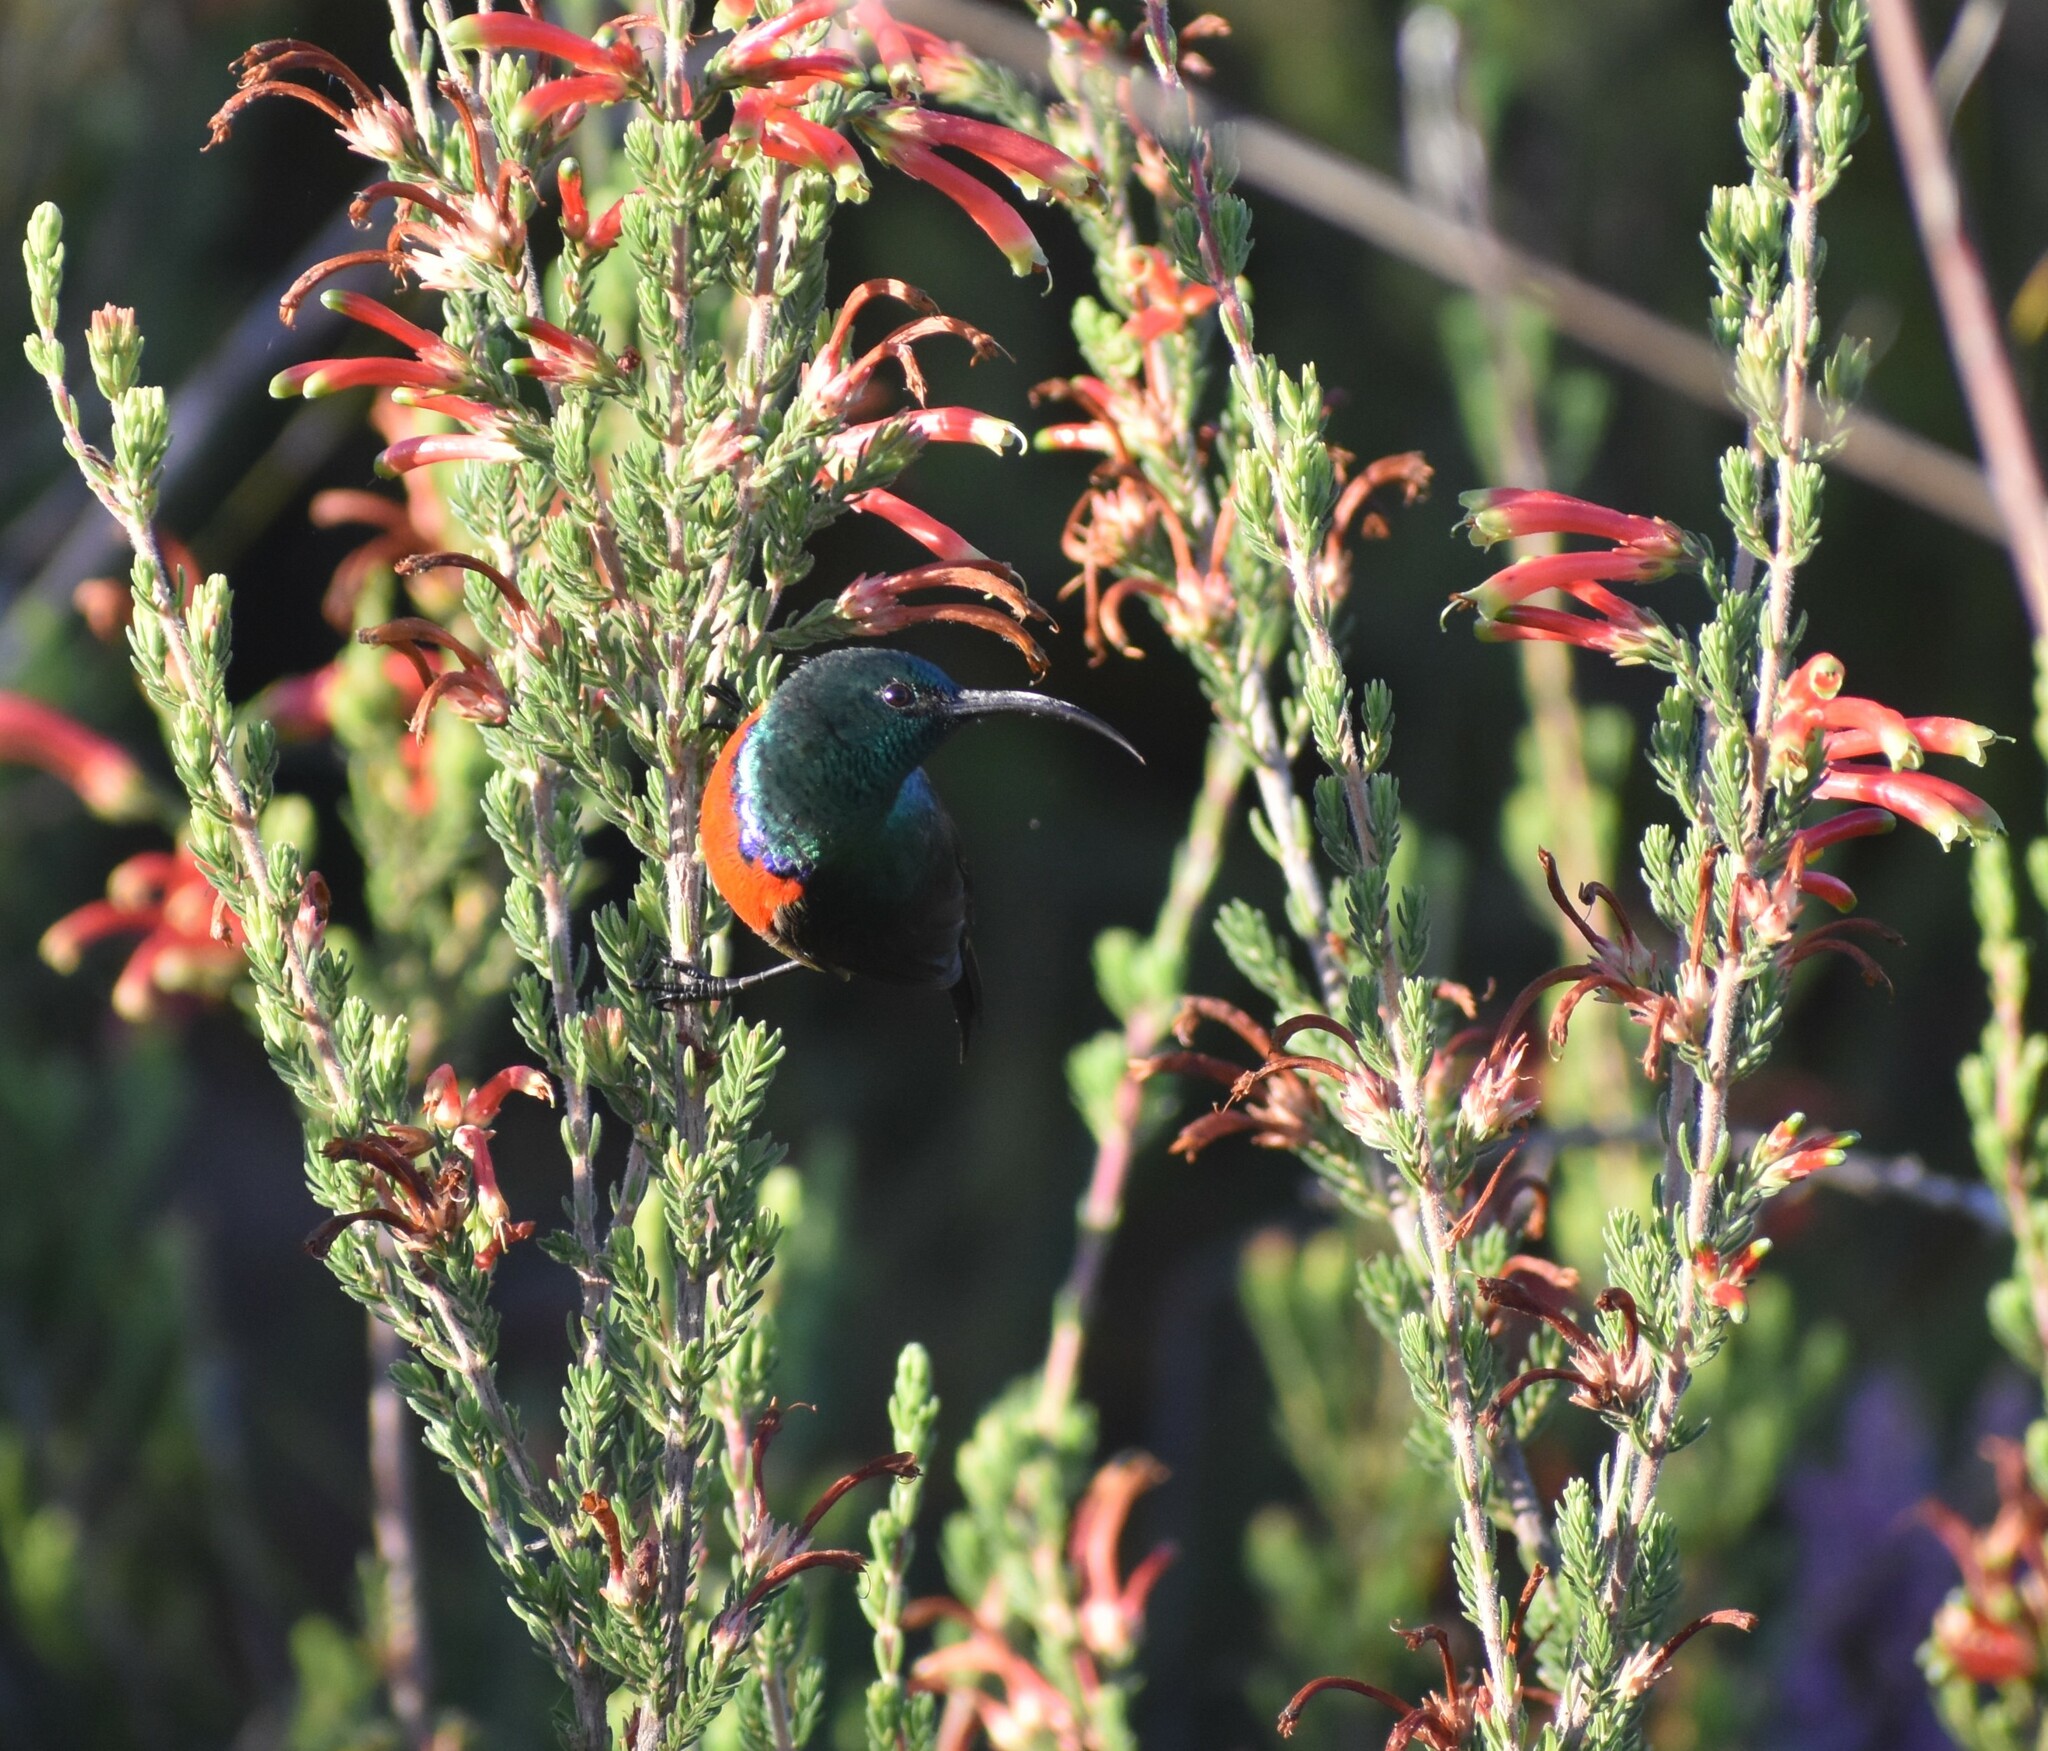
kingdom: Animalia
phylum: Chordata
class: Aves
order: Passeriformes
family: Nectariniidae
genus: Cinnyris
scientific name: Cinnyris afer
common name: Greater double-collared sunbird
